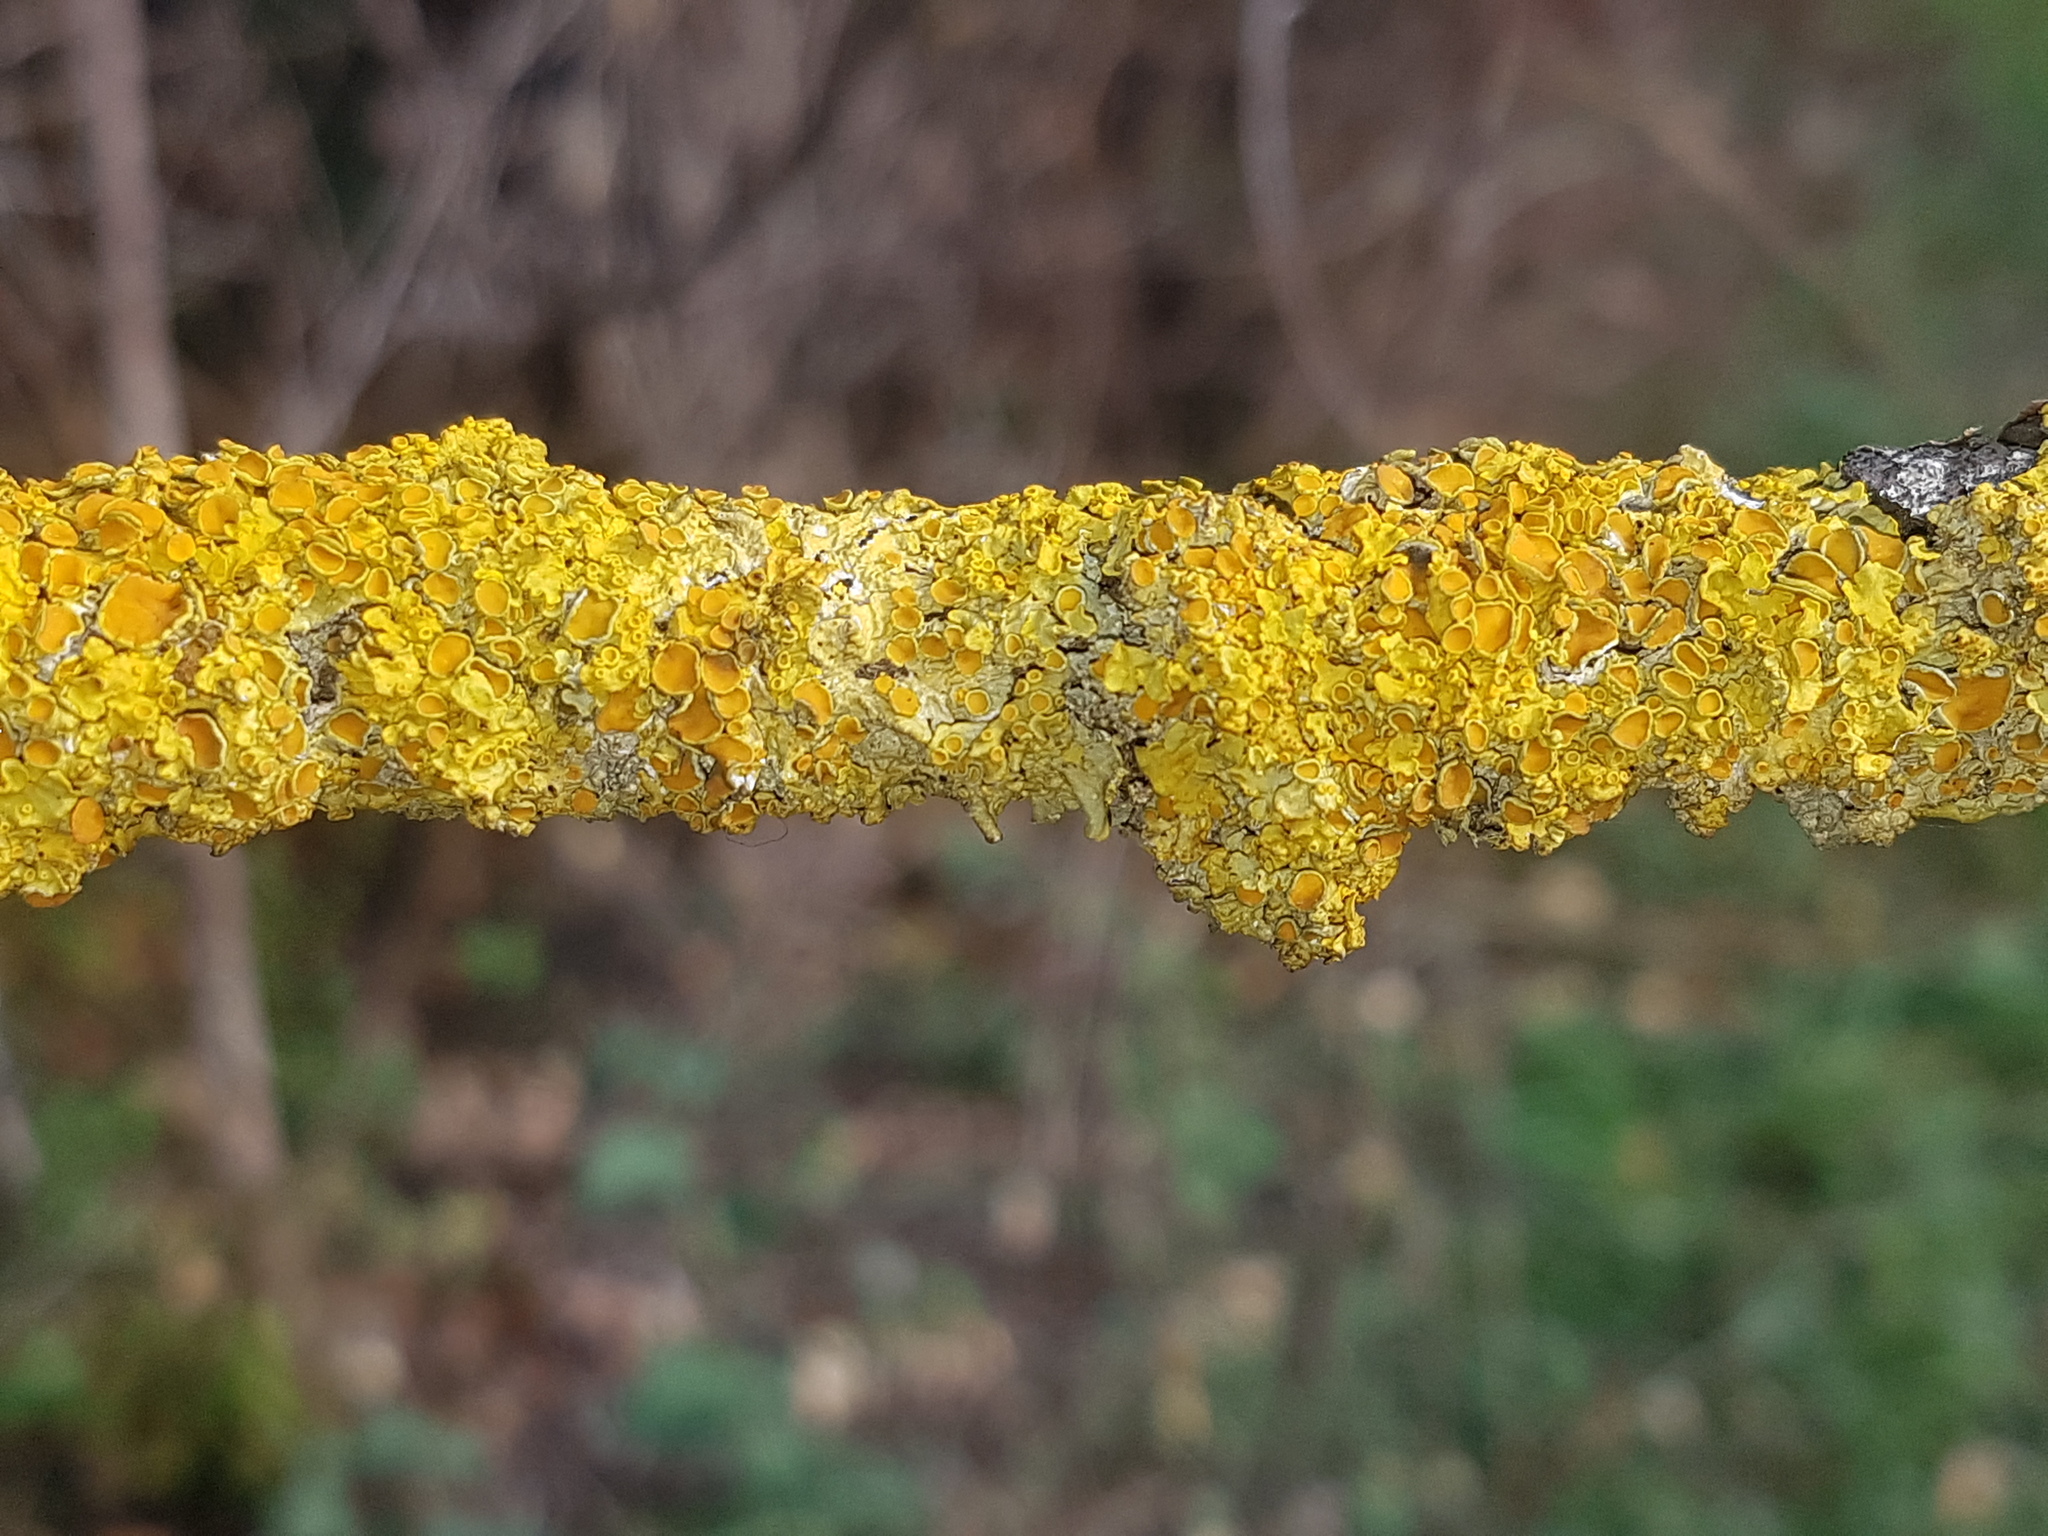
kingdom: Fungi
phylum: Ascomycota
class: Lecanoromycetes
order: Teloschistales
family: Teloschistaceae
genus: Xanthoria
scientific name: Xanthoria parietina
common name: Common orange lichen
